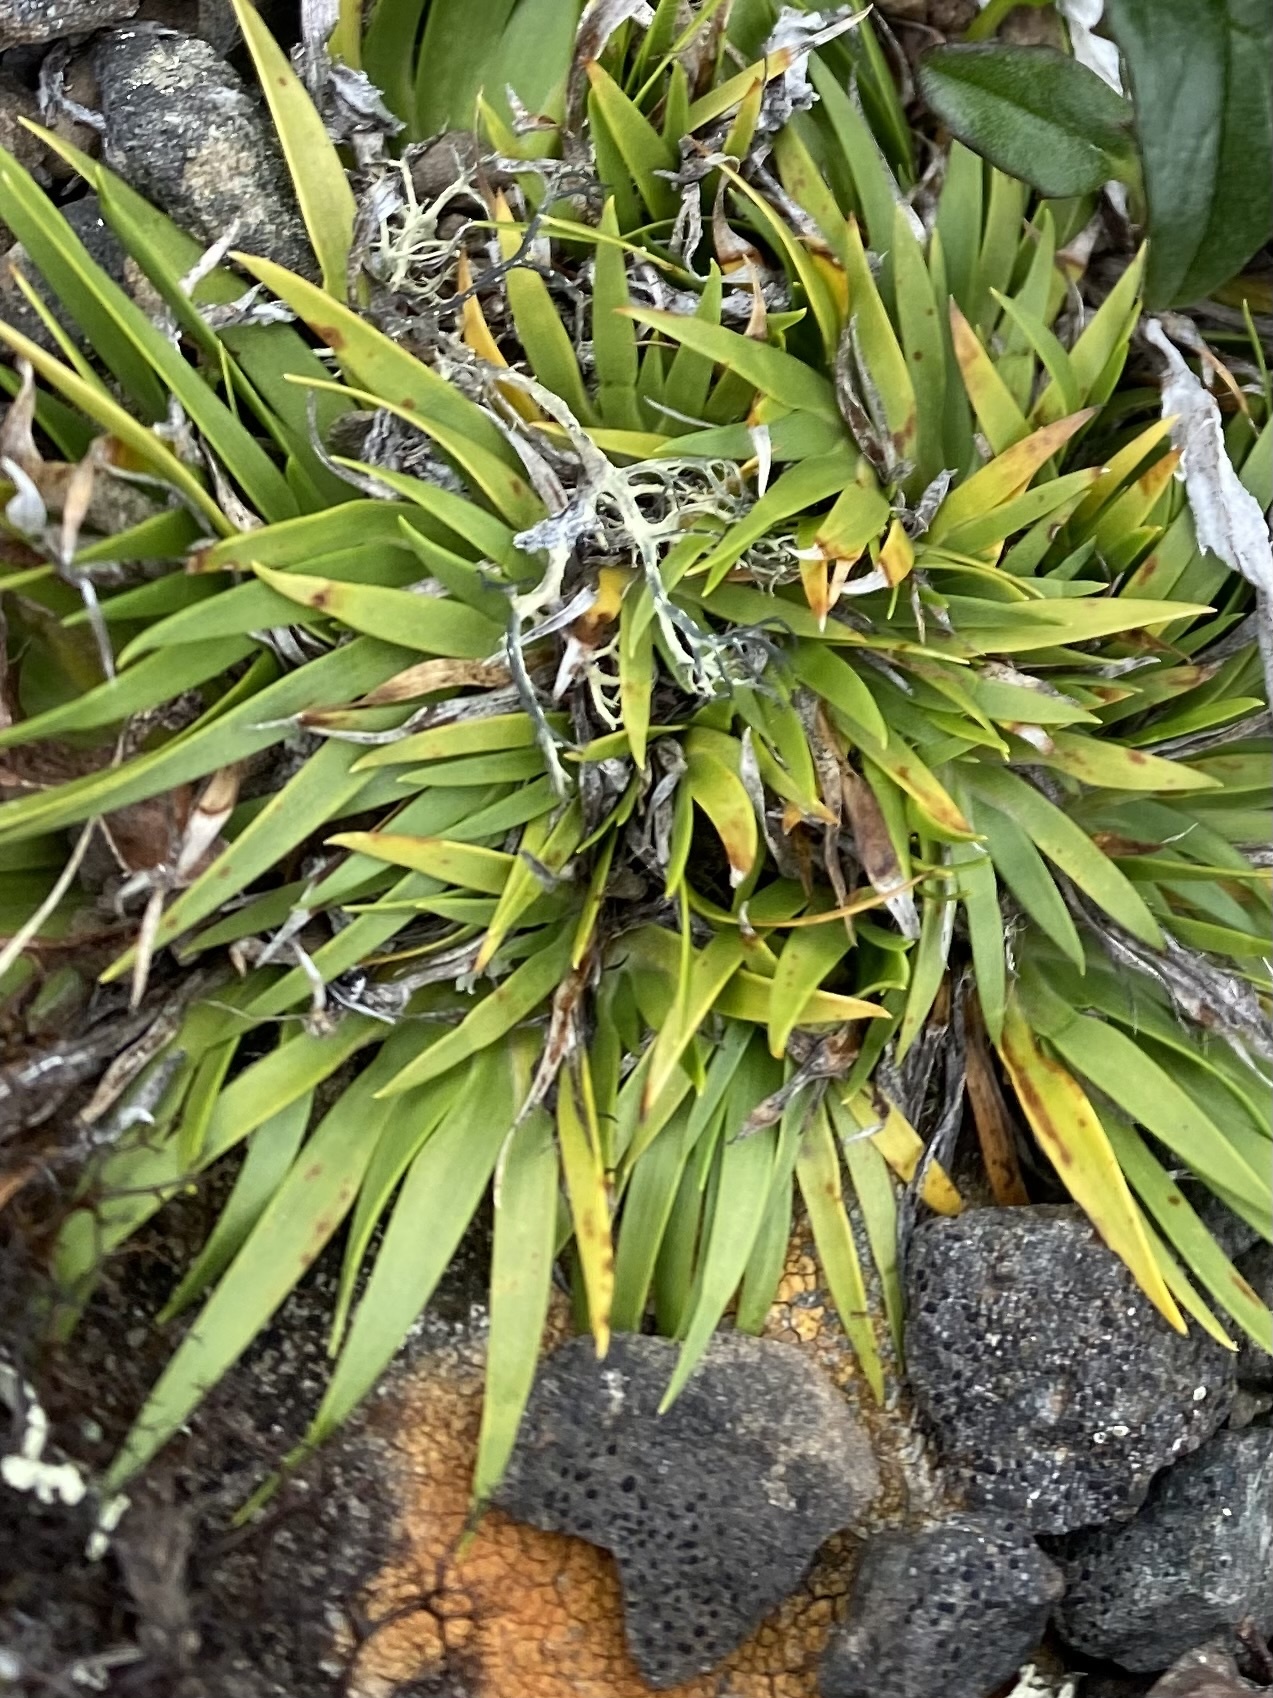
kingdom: Plantae
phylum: Tracheophyta
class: Liliopsida
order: Alismatales
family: Tofieldiaceae
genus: Tofieldia
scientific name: Tofieldia coccinea
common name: Northern false asphodel
